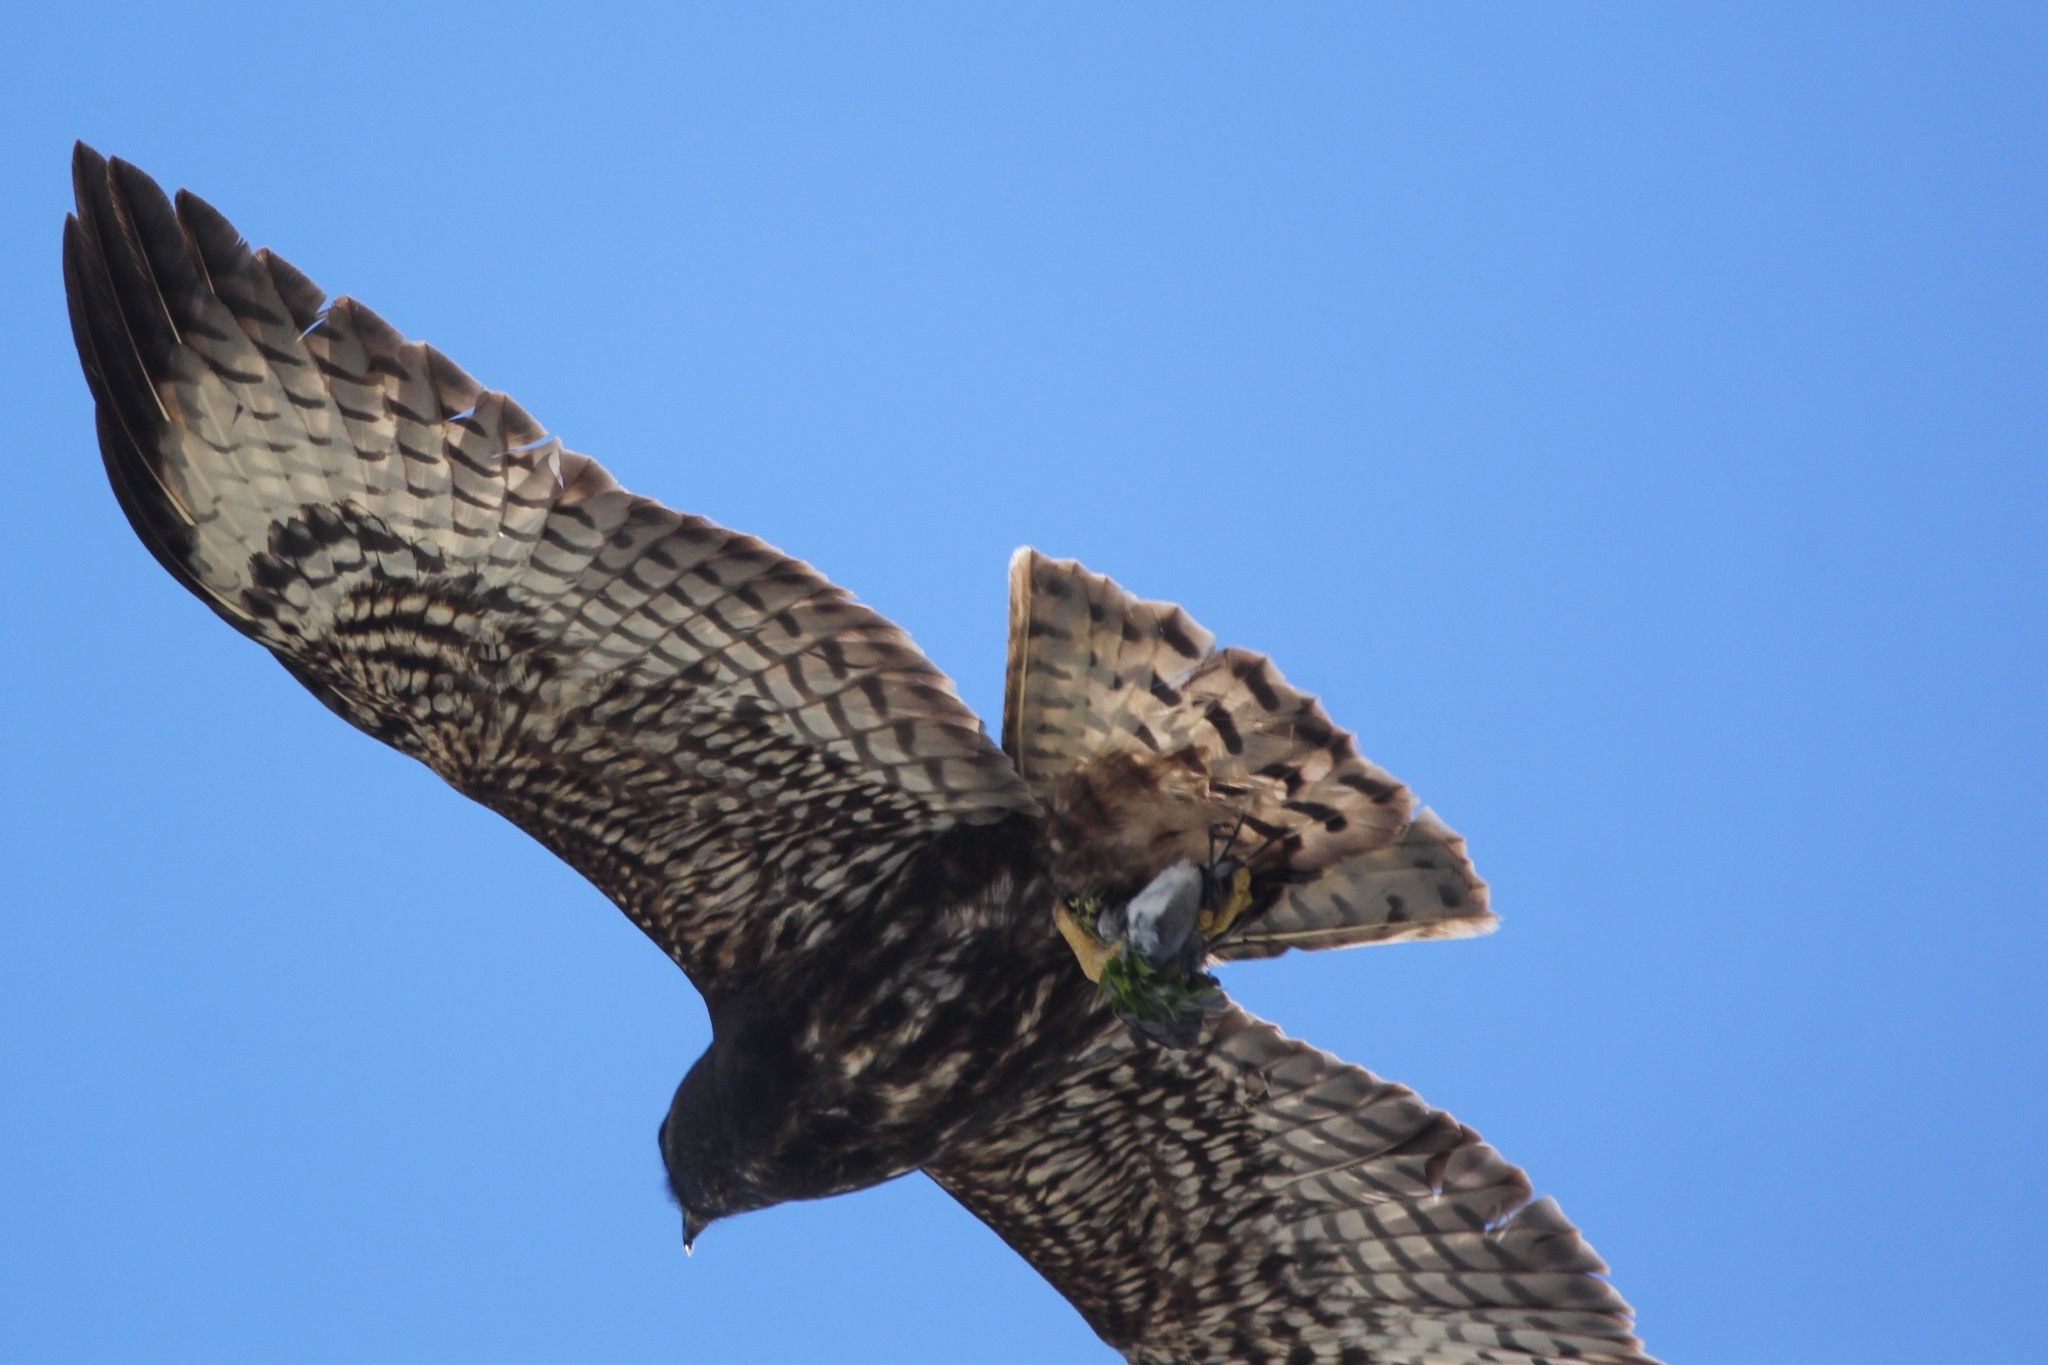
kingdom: Animalia
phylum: Chordata
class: Aves
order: Accipitriformes
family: Accipitridae
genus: Buteo
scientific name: Buteo brachyurus
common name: Short-tailed hawk
